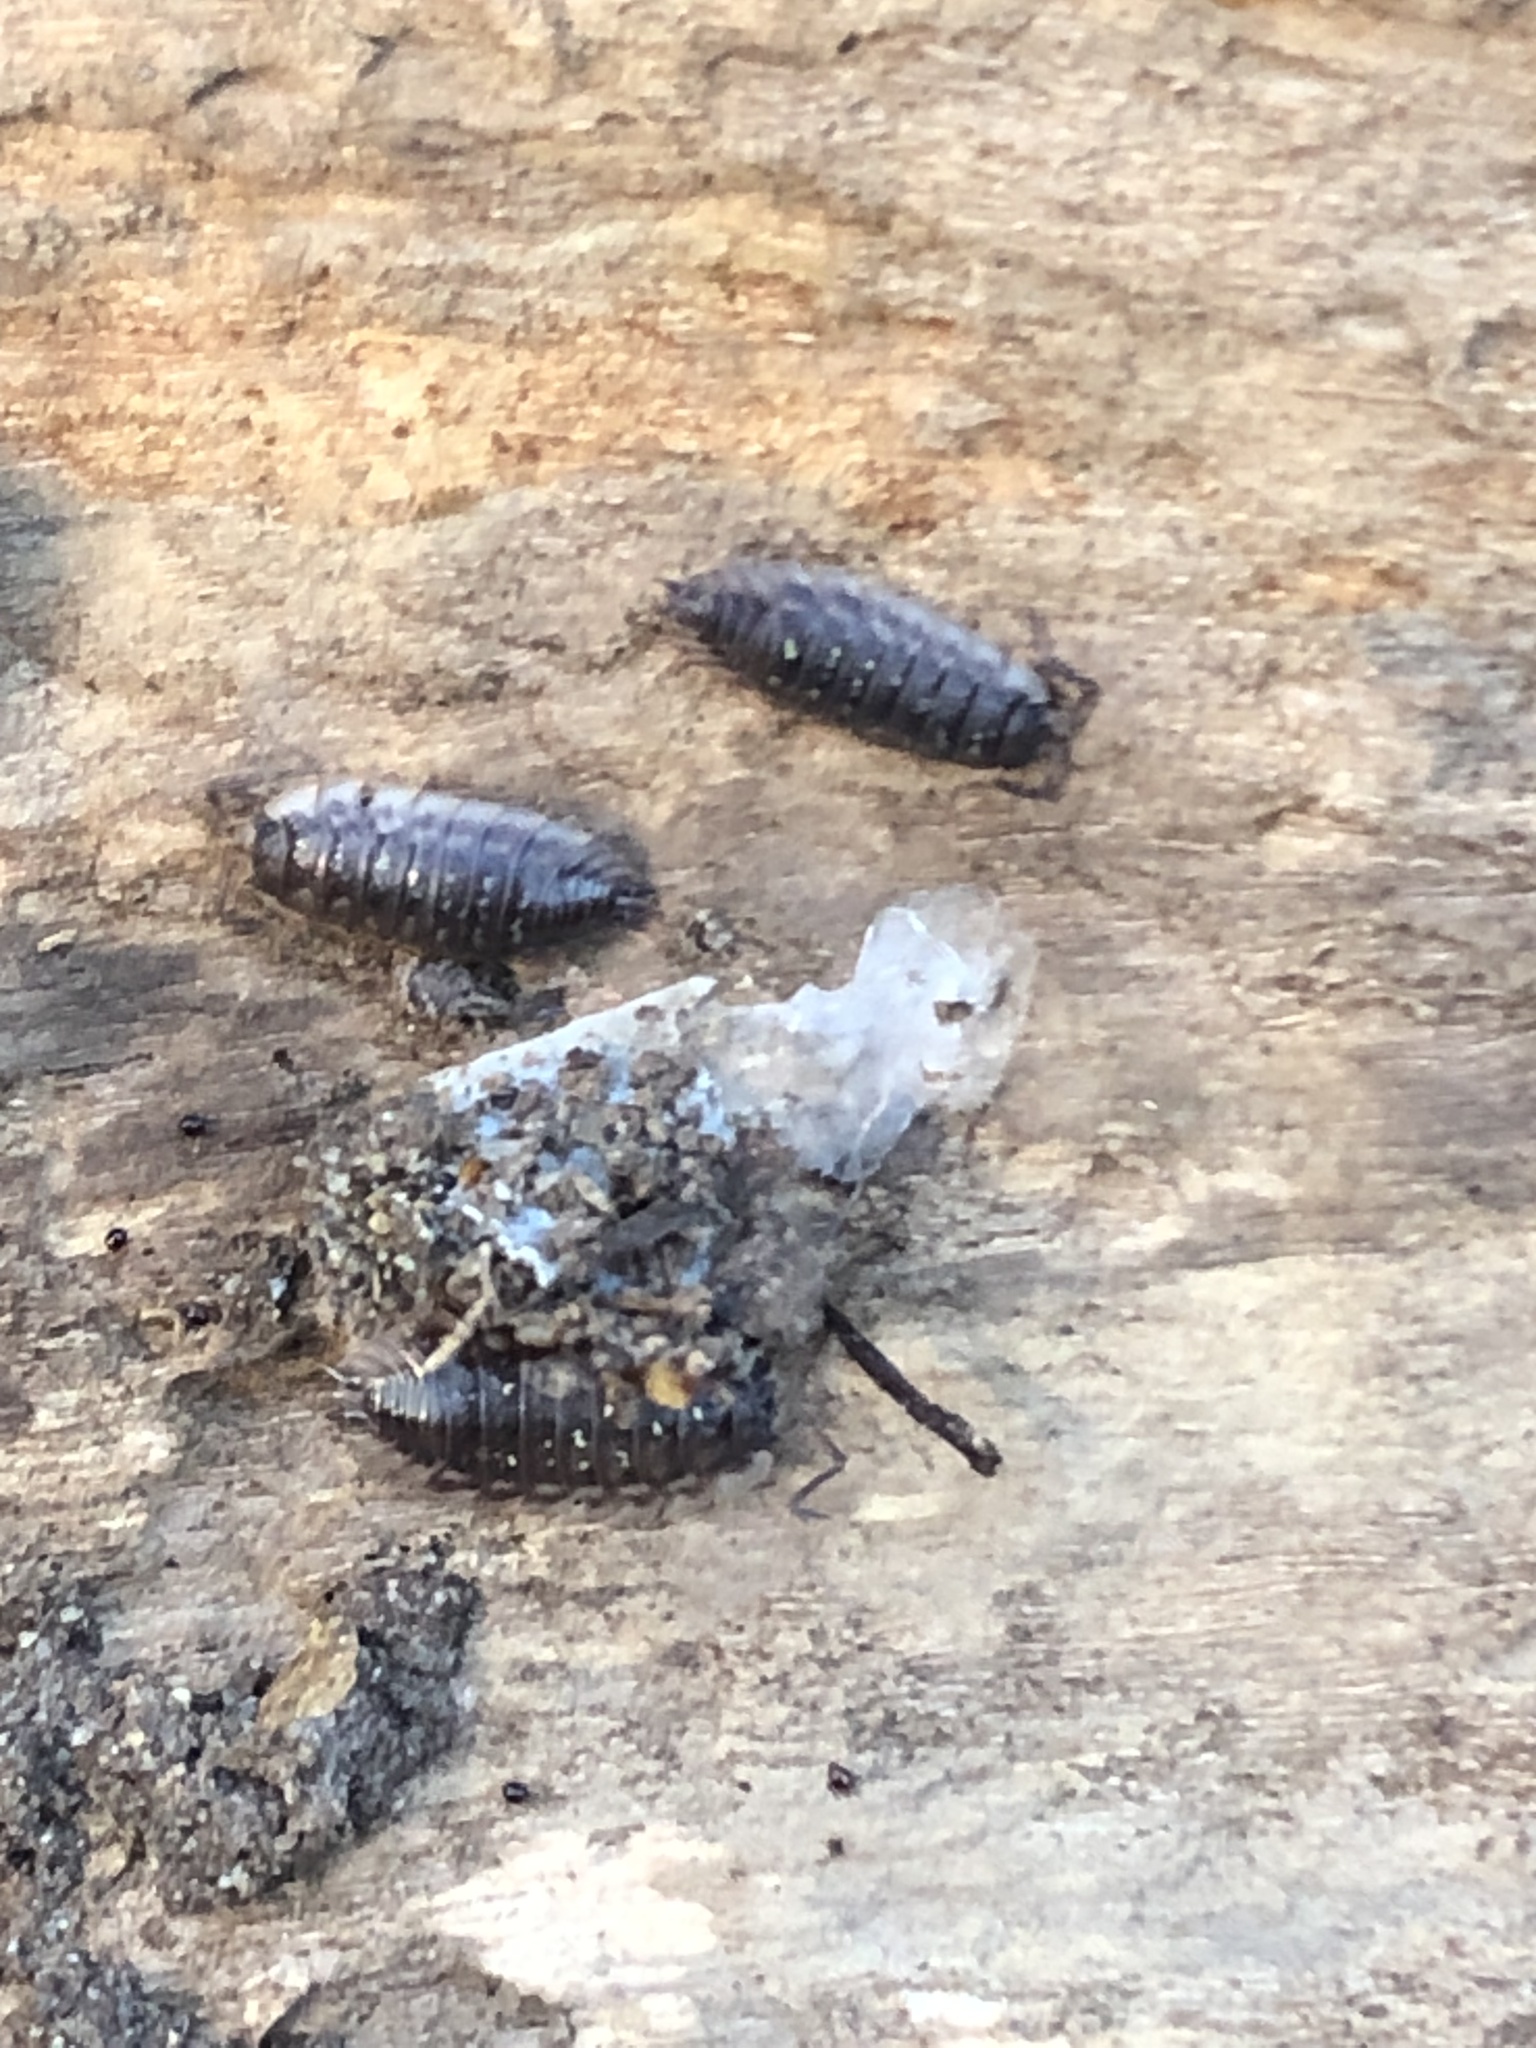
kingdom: Animalia
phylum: Arthropoda
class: Malacostraca
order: Isopoda
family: Oniscidae
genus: Oniscus
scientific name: Oniscus asellus
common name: Common shiny woodlouse
